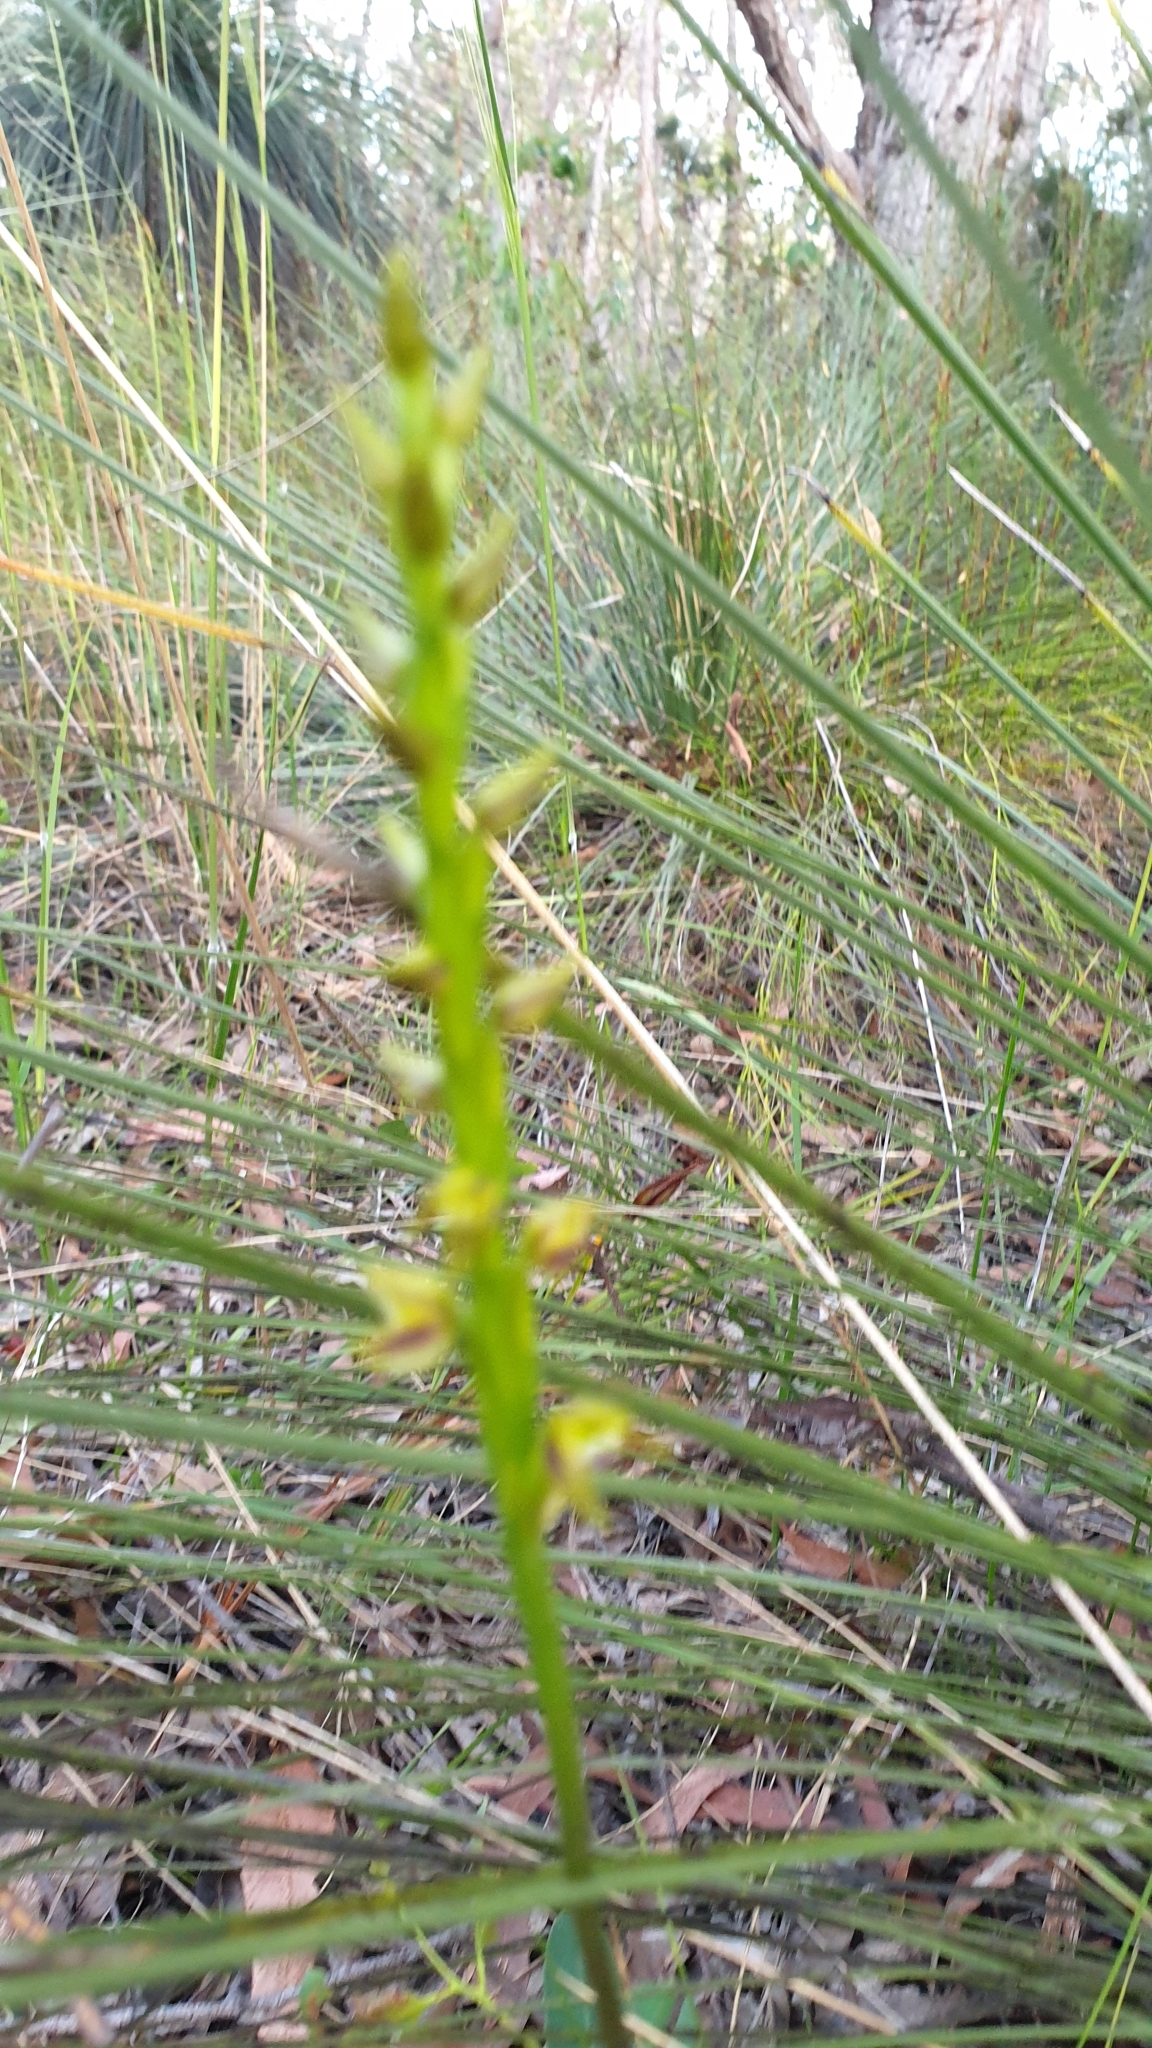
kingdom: Plantae
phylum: Tracheophyta
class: Liliopsida
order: Asparagales
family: Orchidaceae
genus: Prasophyllum
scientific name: Prasophyllum flavum
